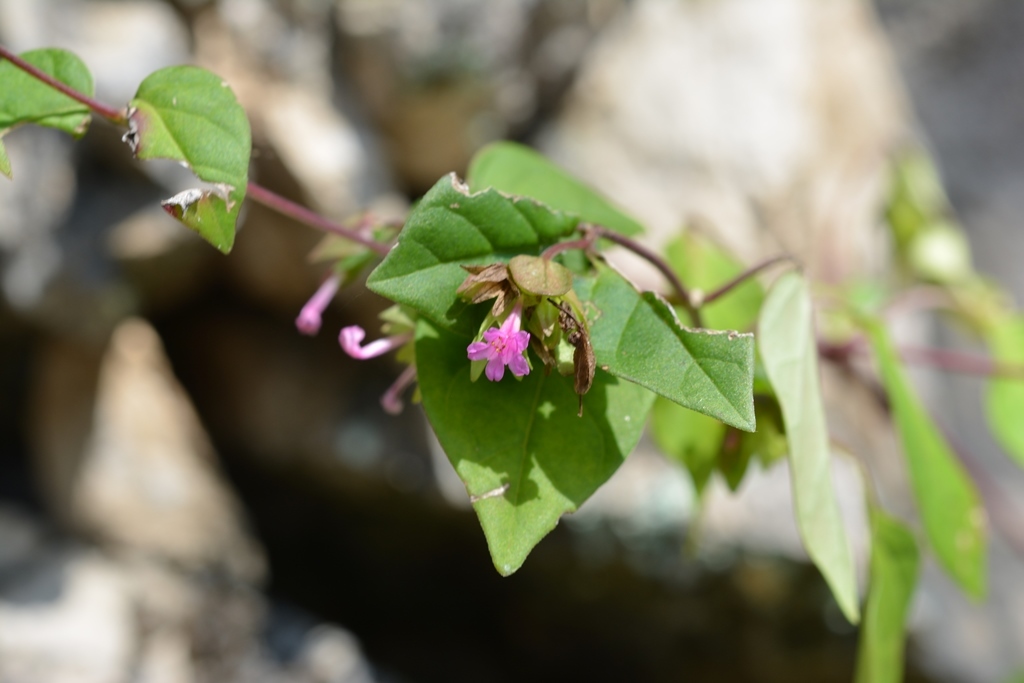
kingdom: Plantae
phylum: Tracheophyta
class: Magnoliopsida
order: Caryophyllales
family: Nyctaginaceae
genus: Mirabilis
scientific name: Mirabilis sanguinea
